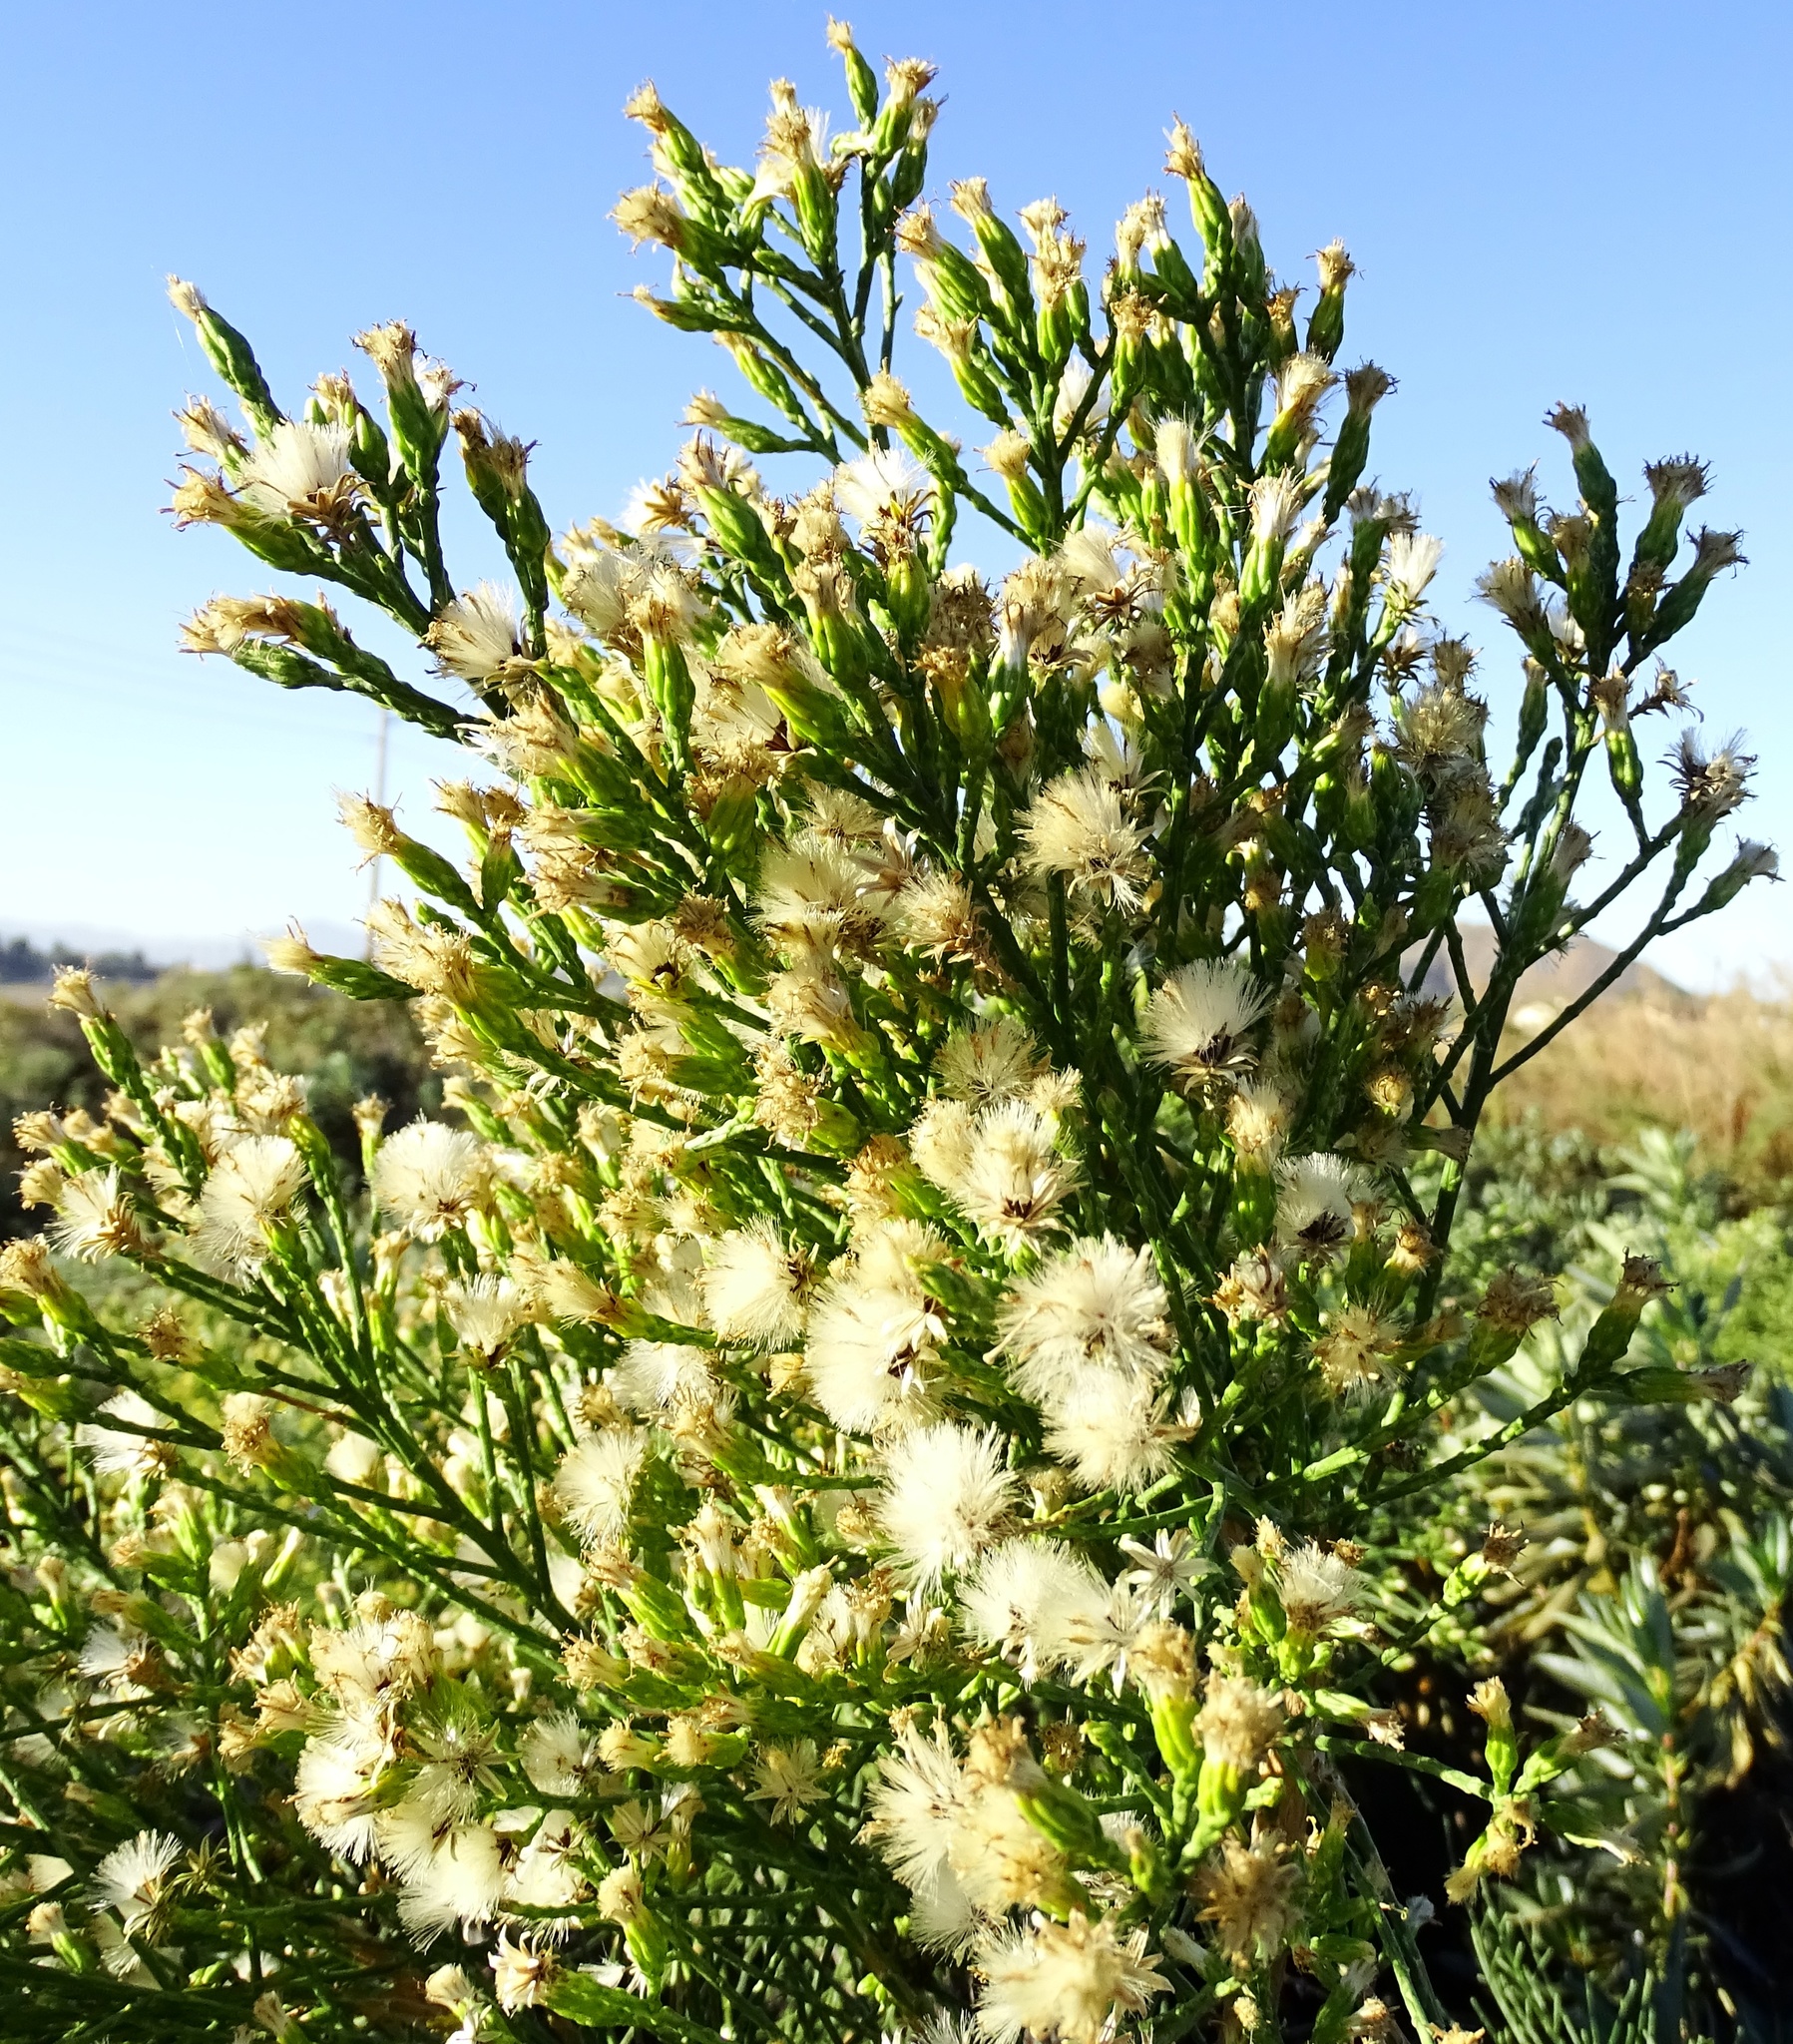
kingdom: Plantae
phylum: Tracheophyta
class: Magnoliopsida
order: Asterales
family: Asteraceae
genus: Lepidospartum
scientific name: Lepidospartum squamatum
